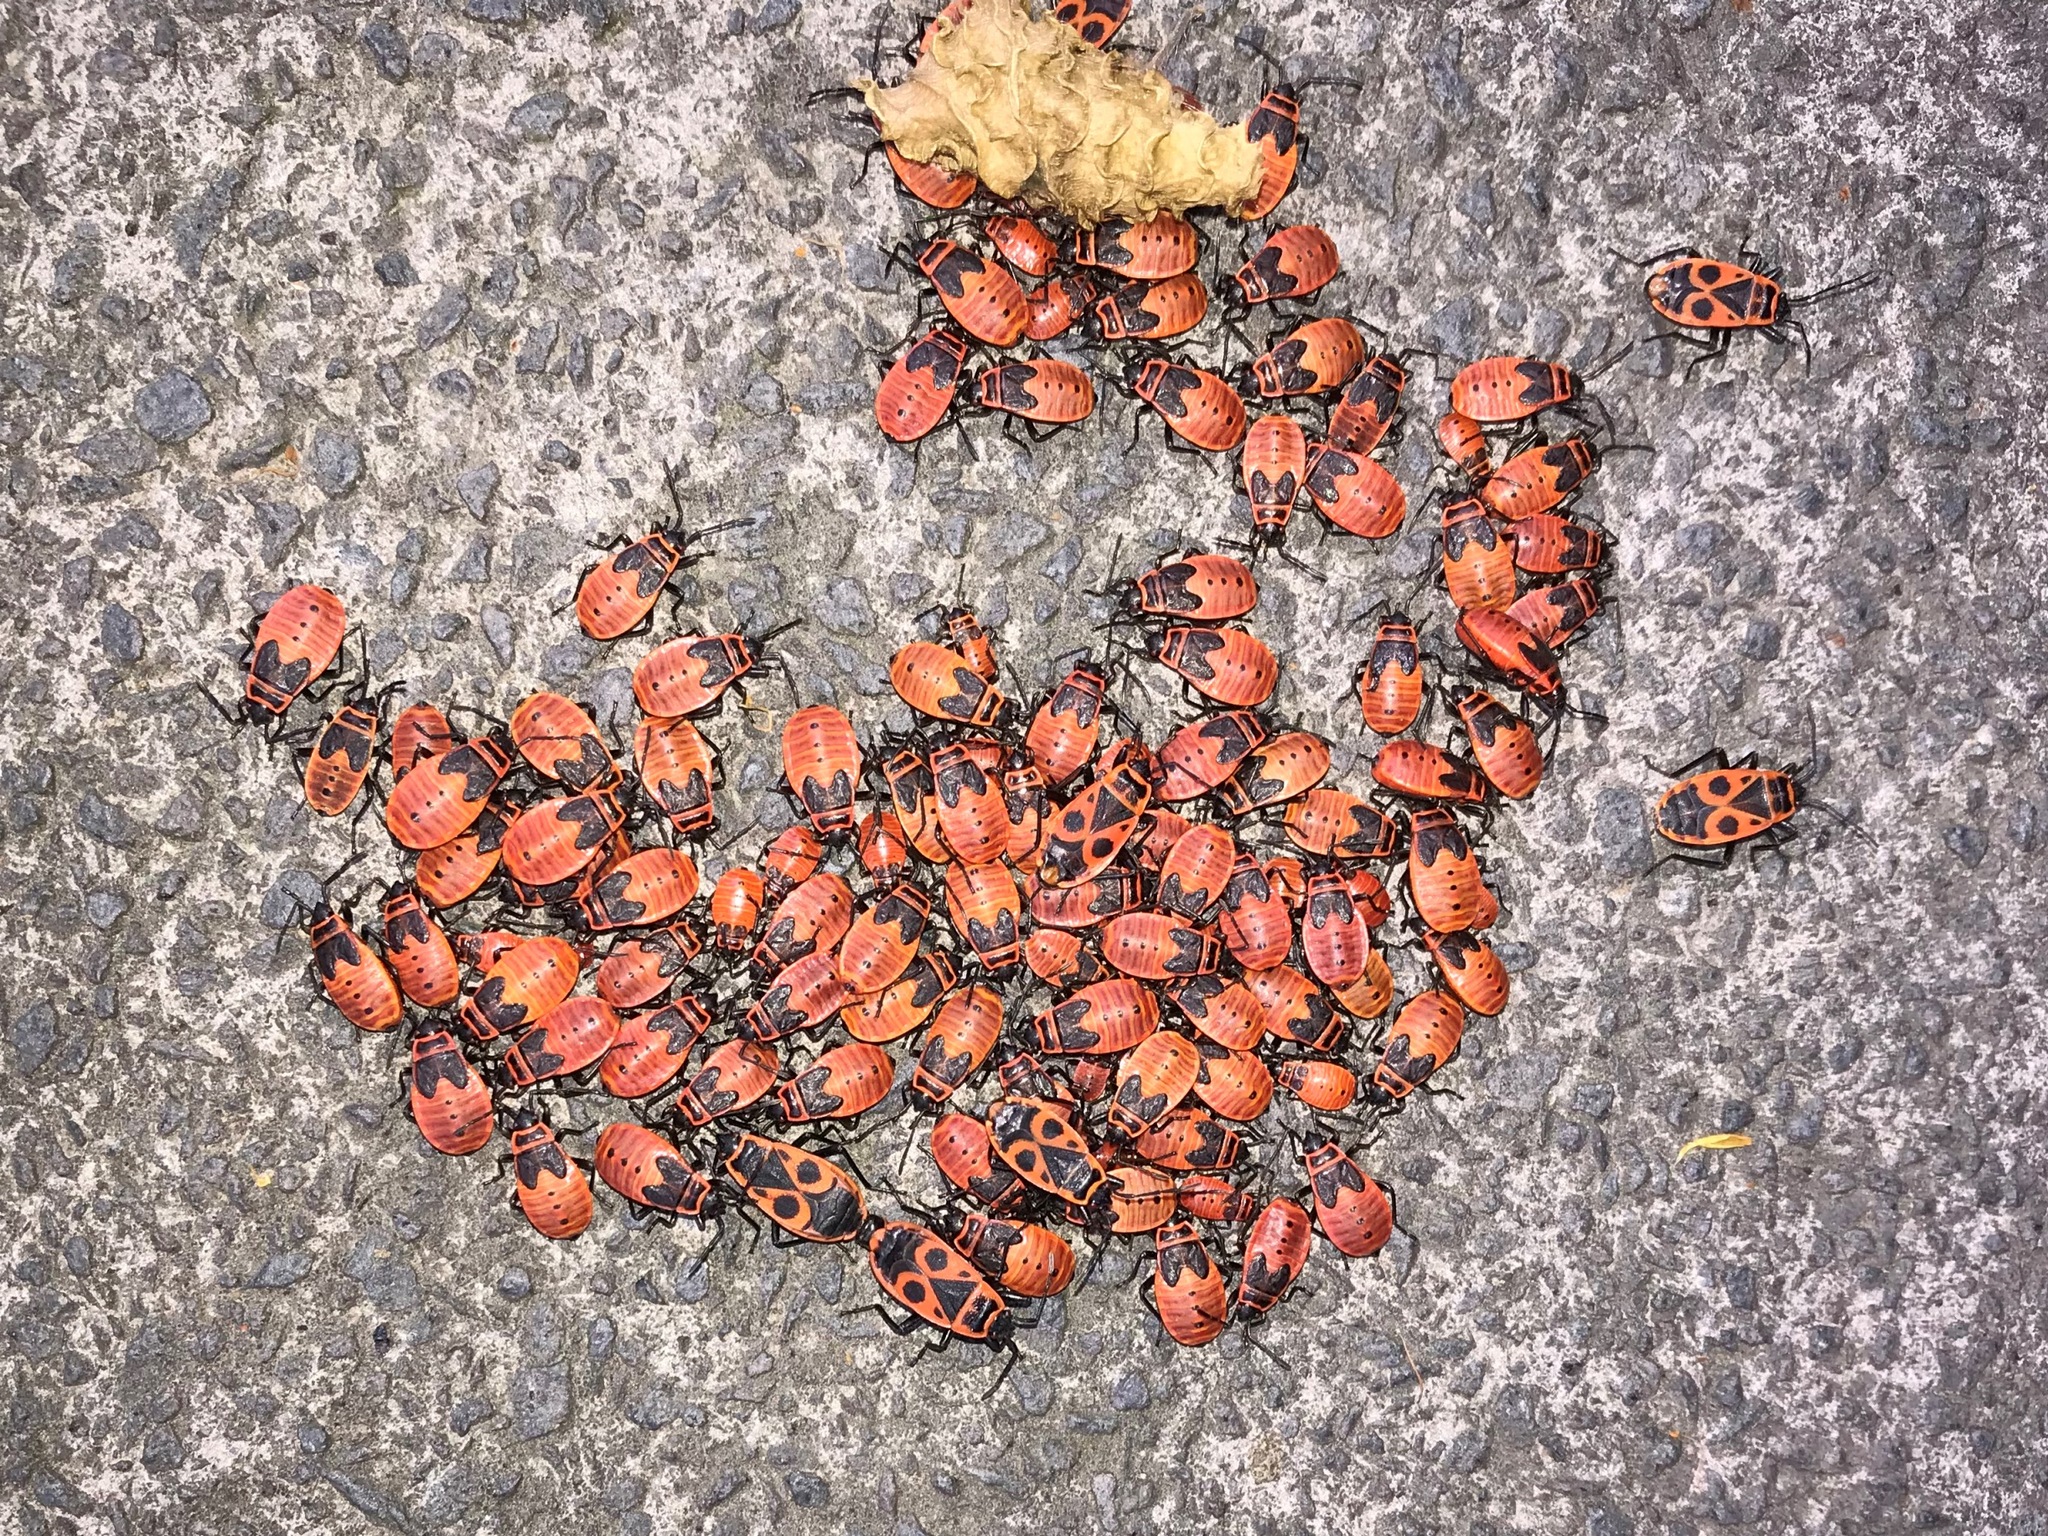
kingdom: Animalia
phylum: Arthropoda
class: Insecta
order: Hemiptera
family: Pyrrhocoridae
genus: Pyrrhocoris
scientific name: Pyrrhocoris apterus
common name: Firebug
